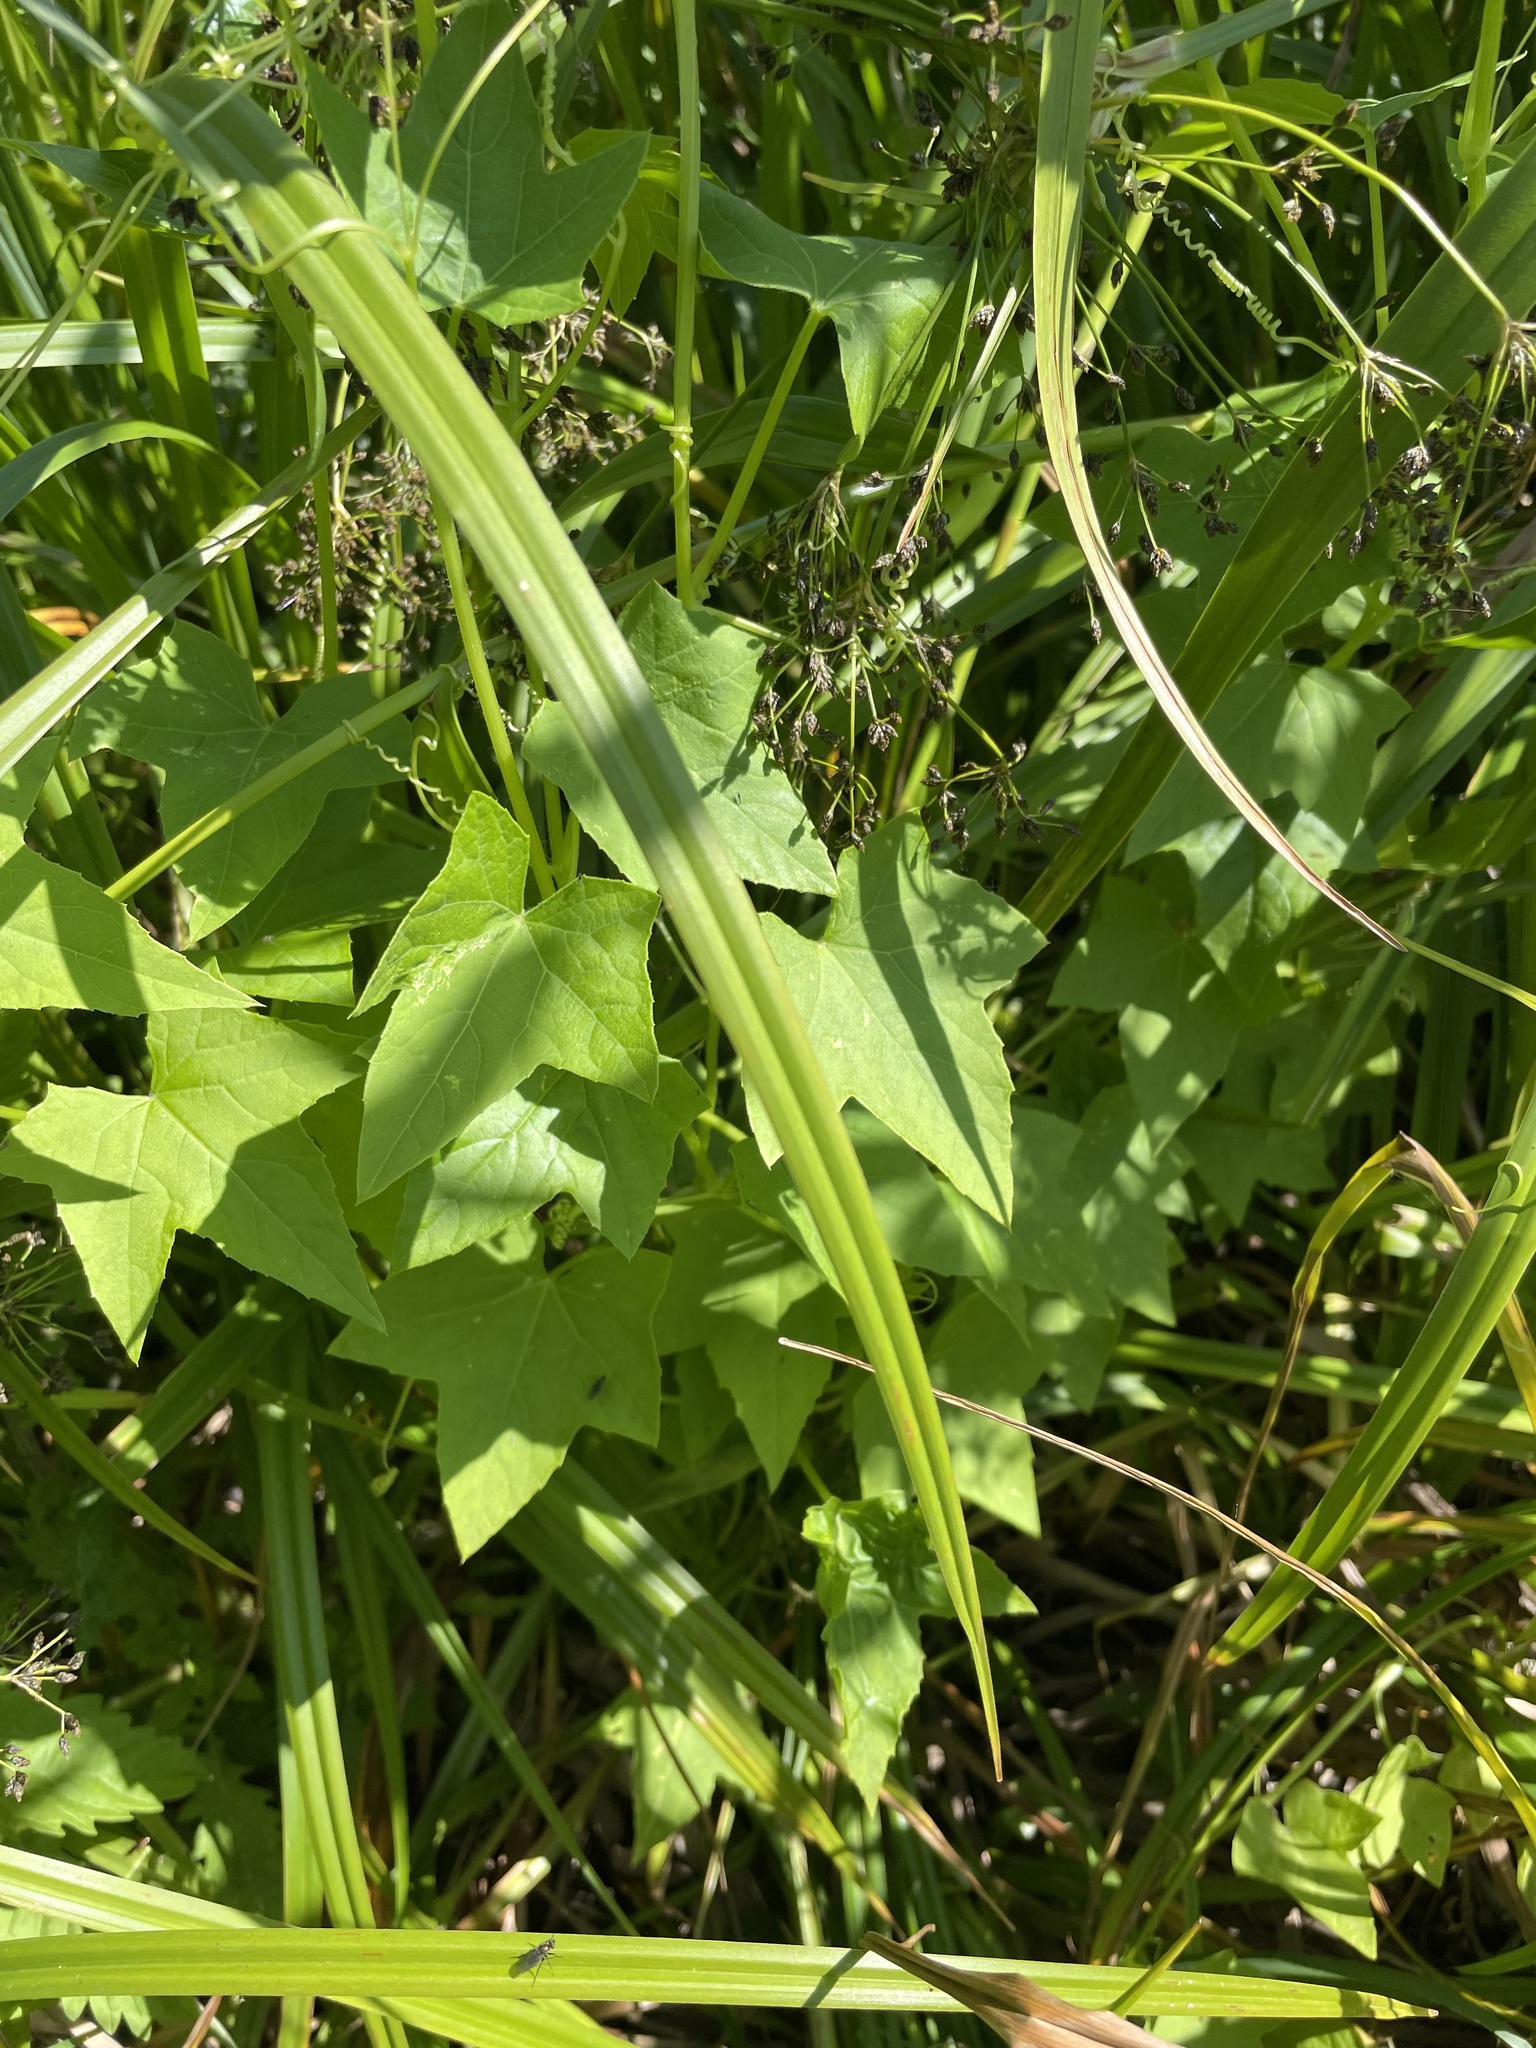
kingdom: Plantae
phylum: Tracheophyta
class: Magnoliopsida
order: Cucurbitales
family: Cucurbitaceae
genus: Echinocystis
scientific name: Echinocystis lobata
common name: Wild cucumber
